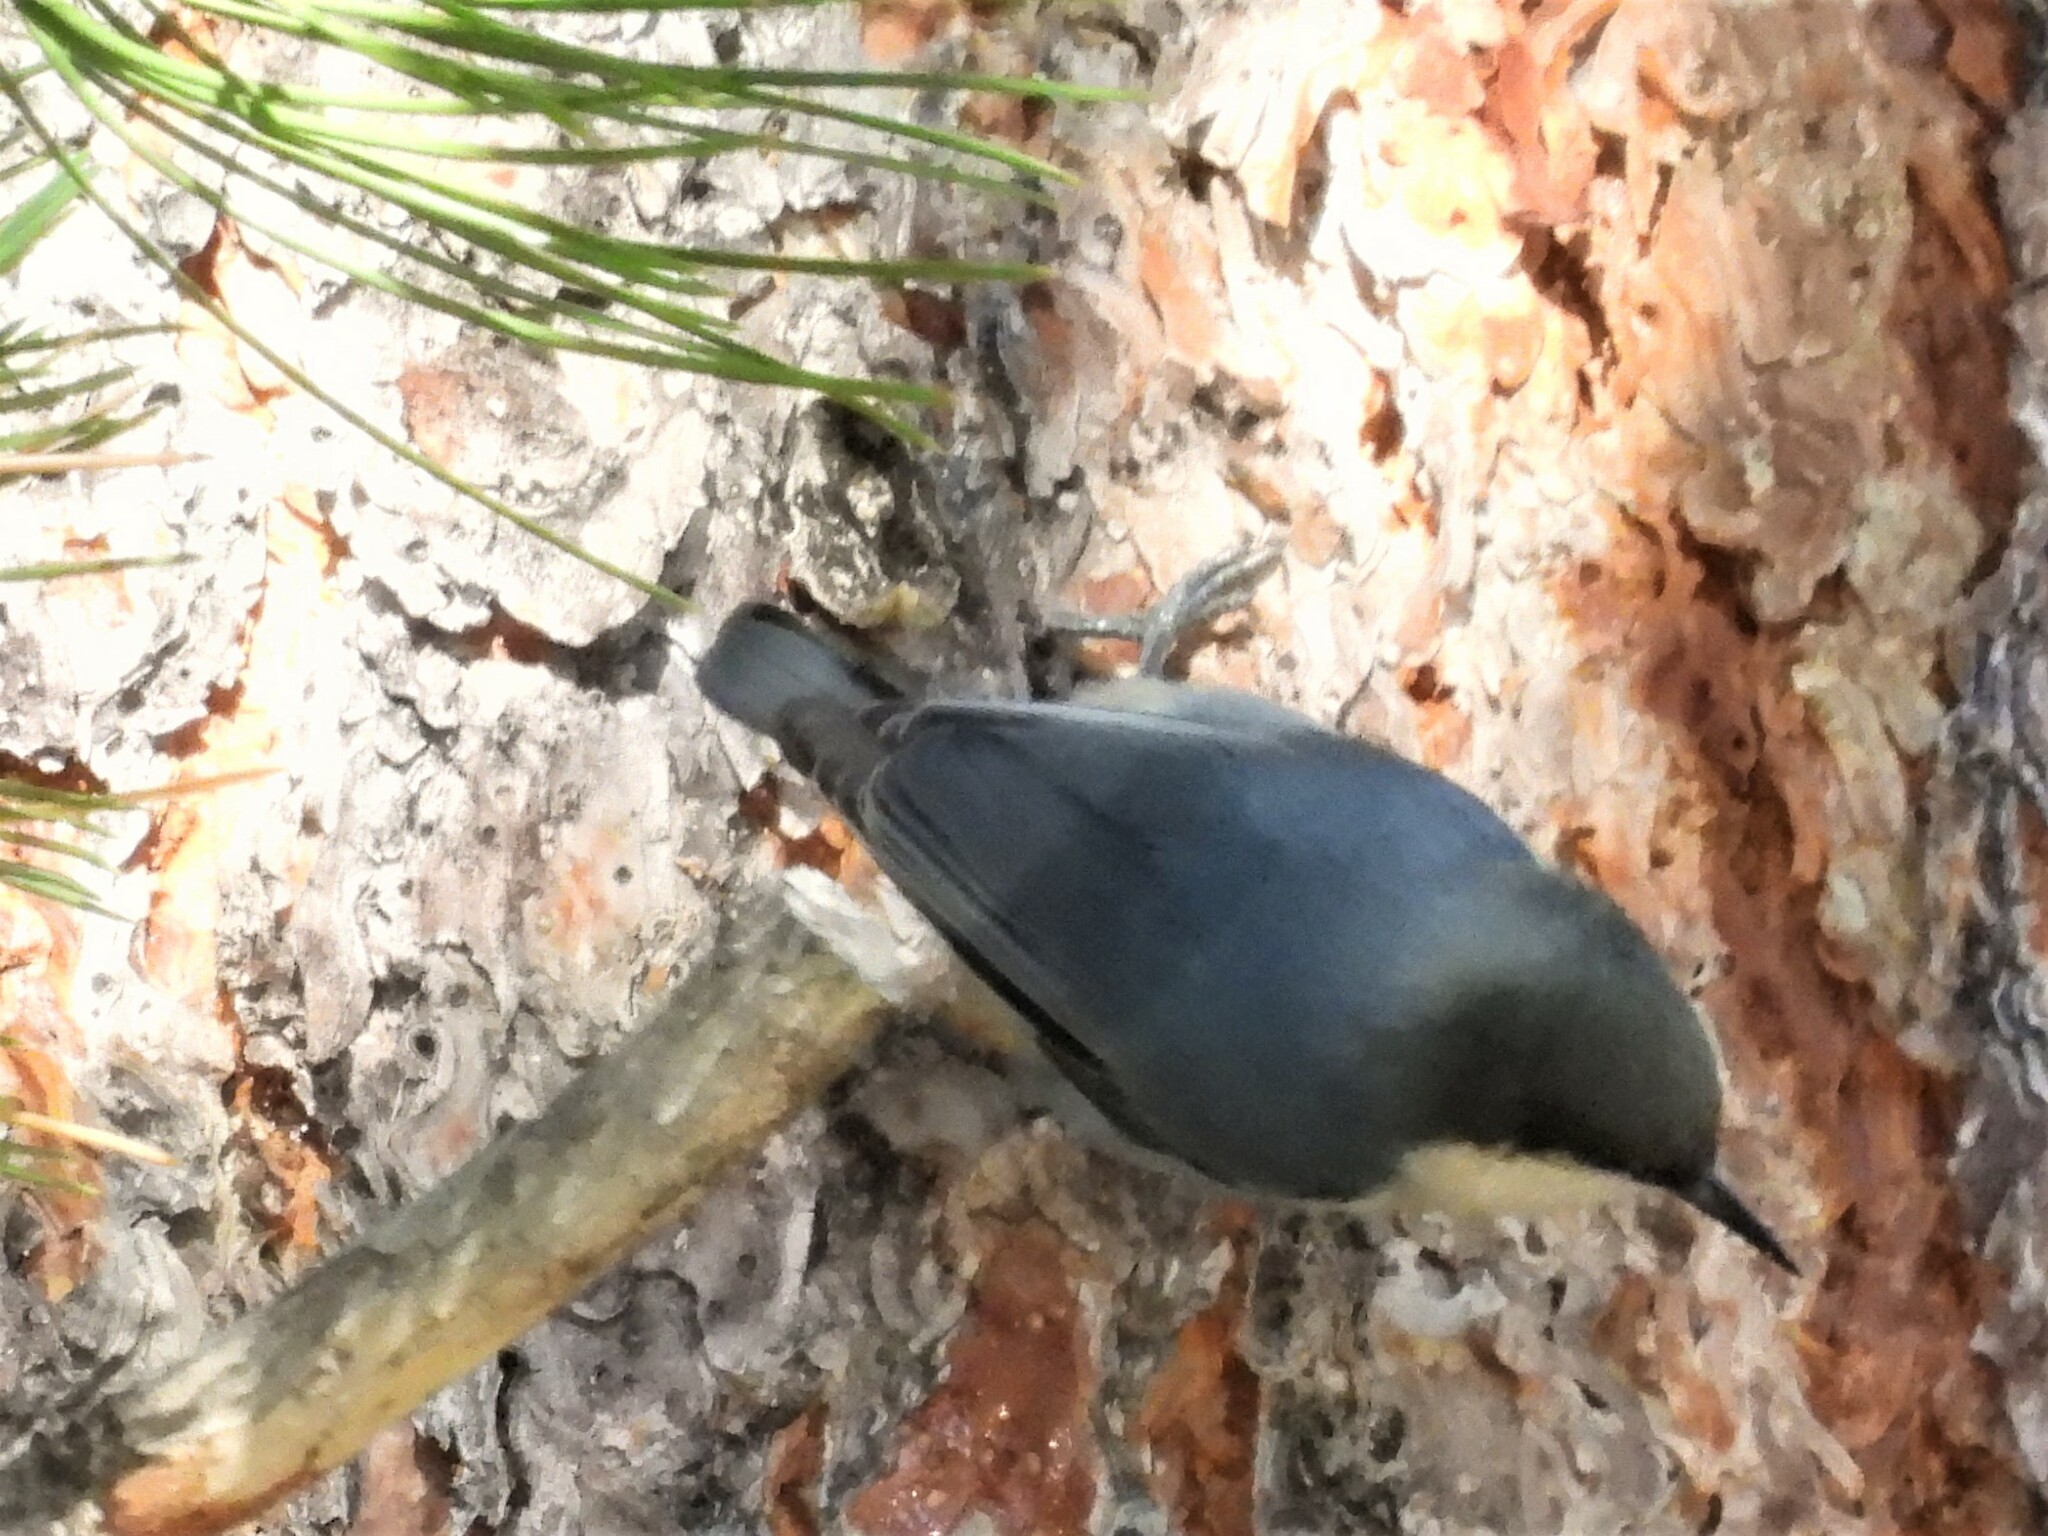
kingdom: Animalia
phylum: Chordata
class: Aves
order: Passeriformes
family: Sittidae
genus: Sitta
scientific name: Sitta pygmaea
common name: Pygmy nuthatch
